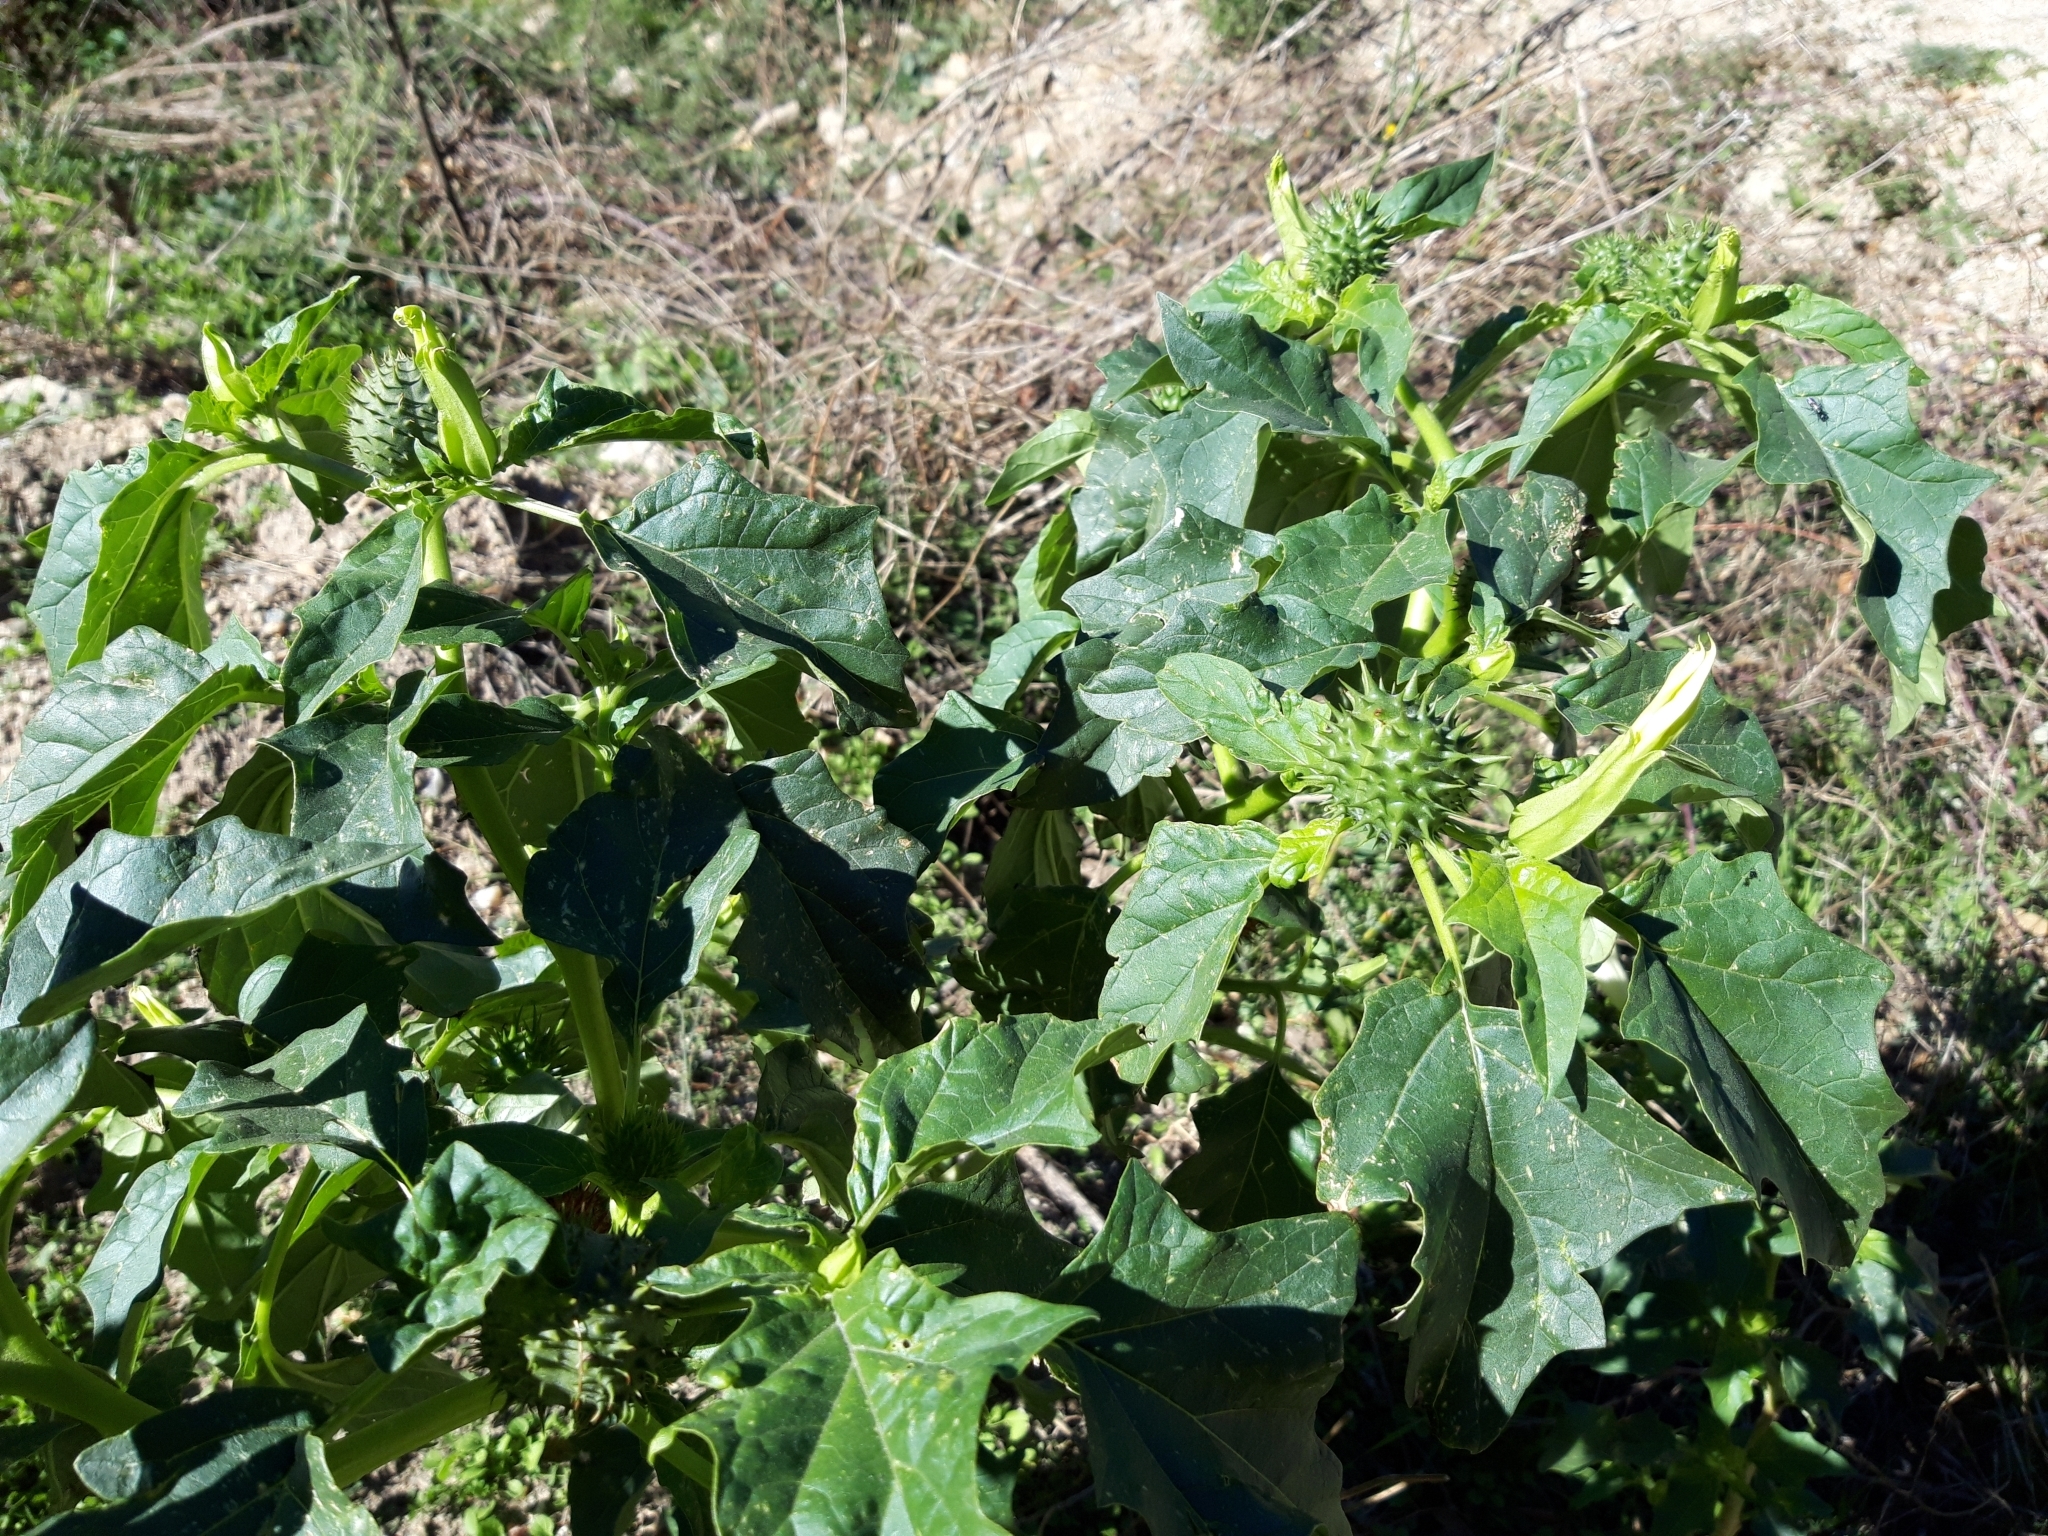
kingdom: Plantae
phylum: Tracheophyta
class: Magnoliopsida
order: Solanales
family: Solanaceae
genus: Datura
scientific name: Datura stramonium
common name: Thorn-apple
